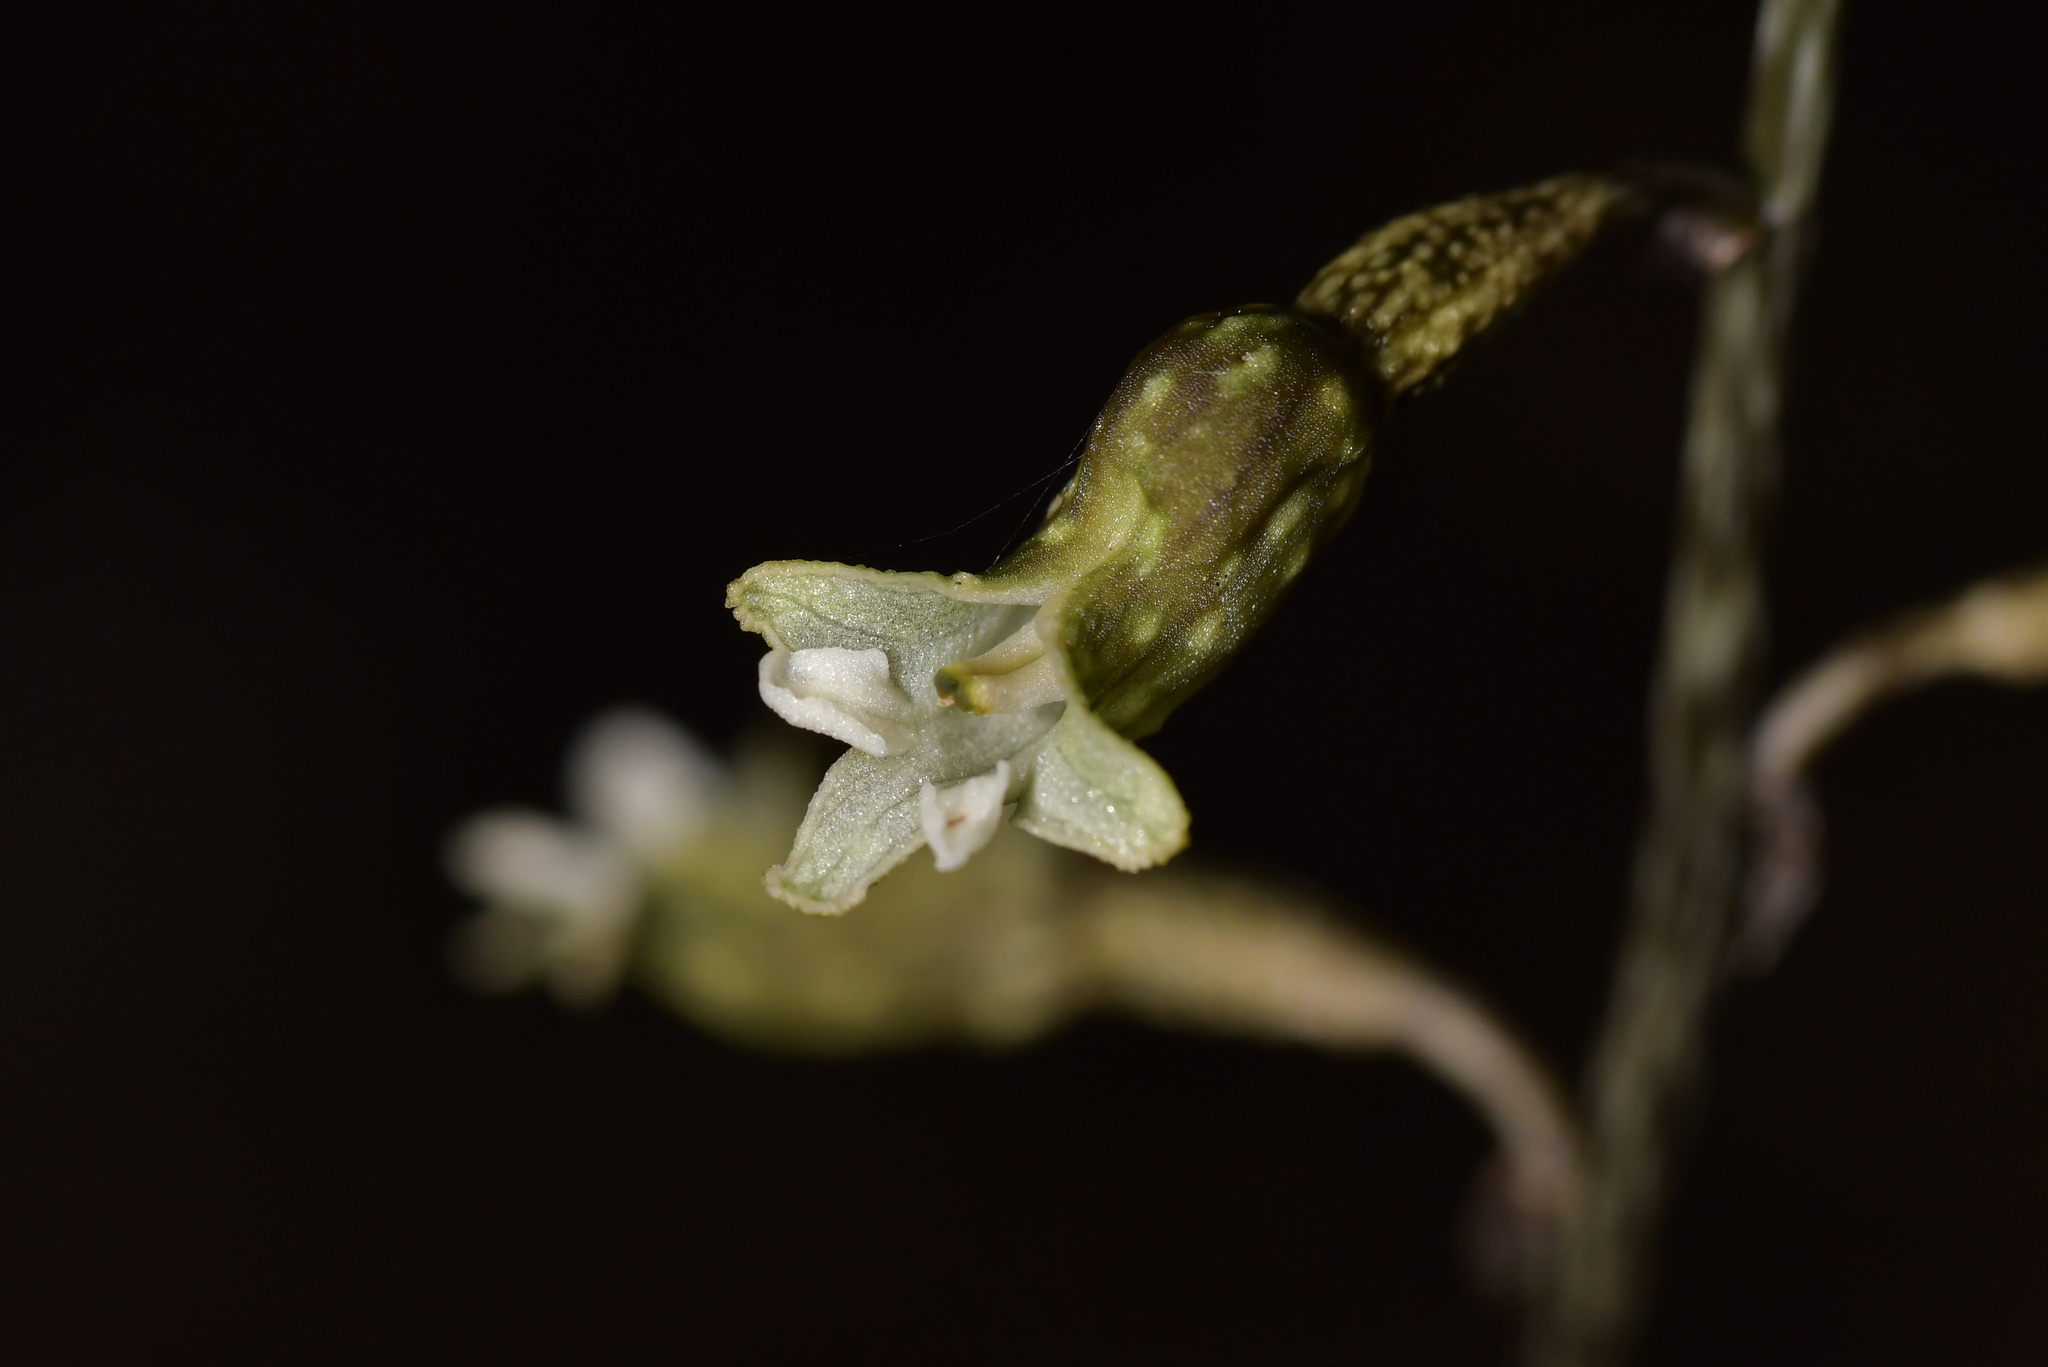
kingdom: Plantae
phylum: Tracheophyta
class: Liliopsida
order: Asparagales
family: Orchidaceae
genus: Gastrodia
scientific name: Gastrodia cunninghamii
